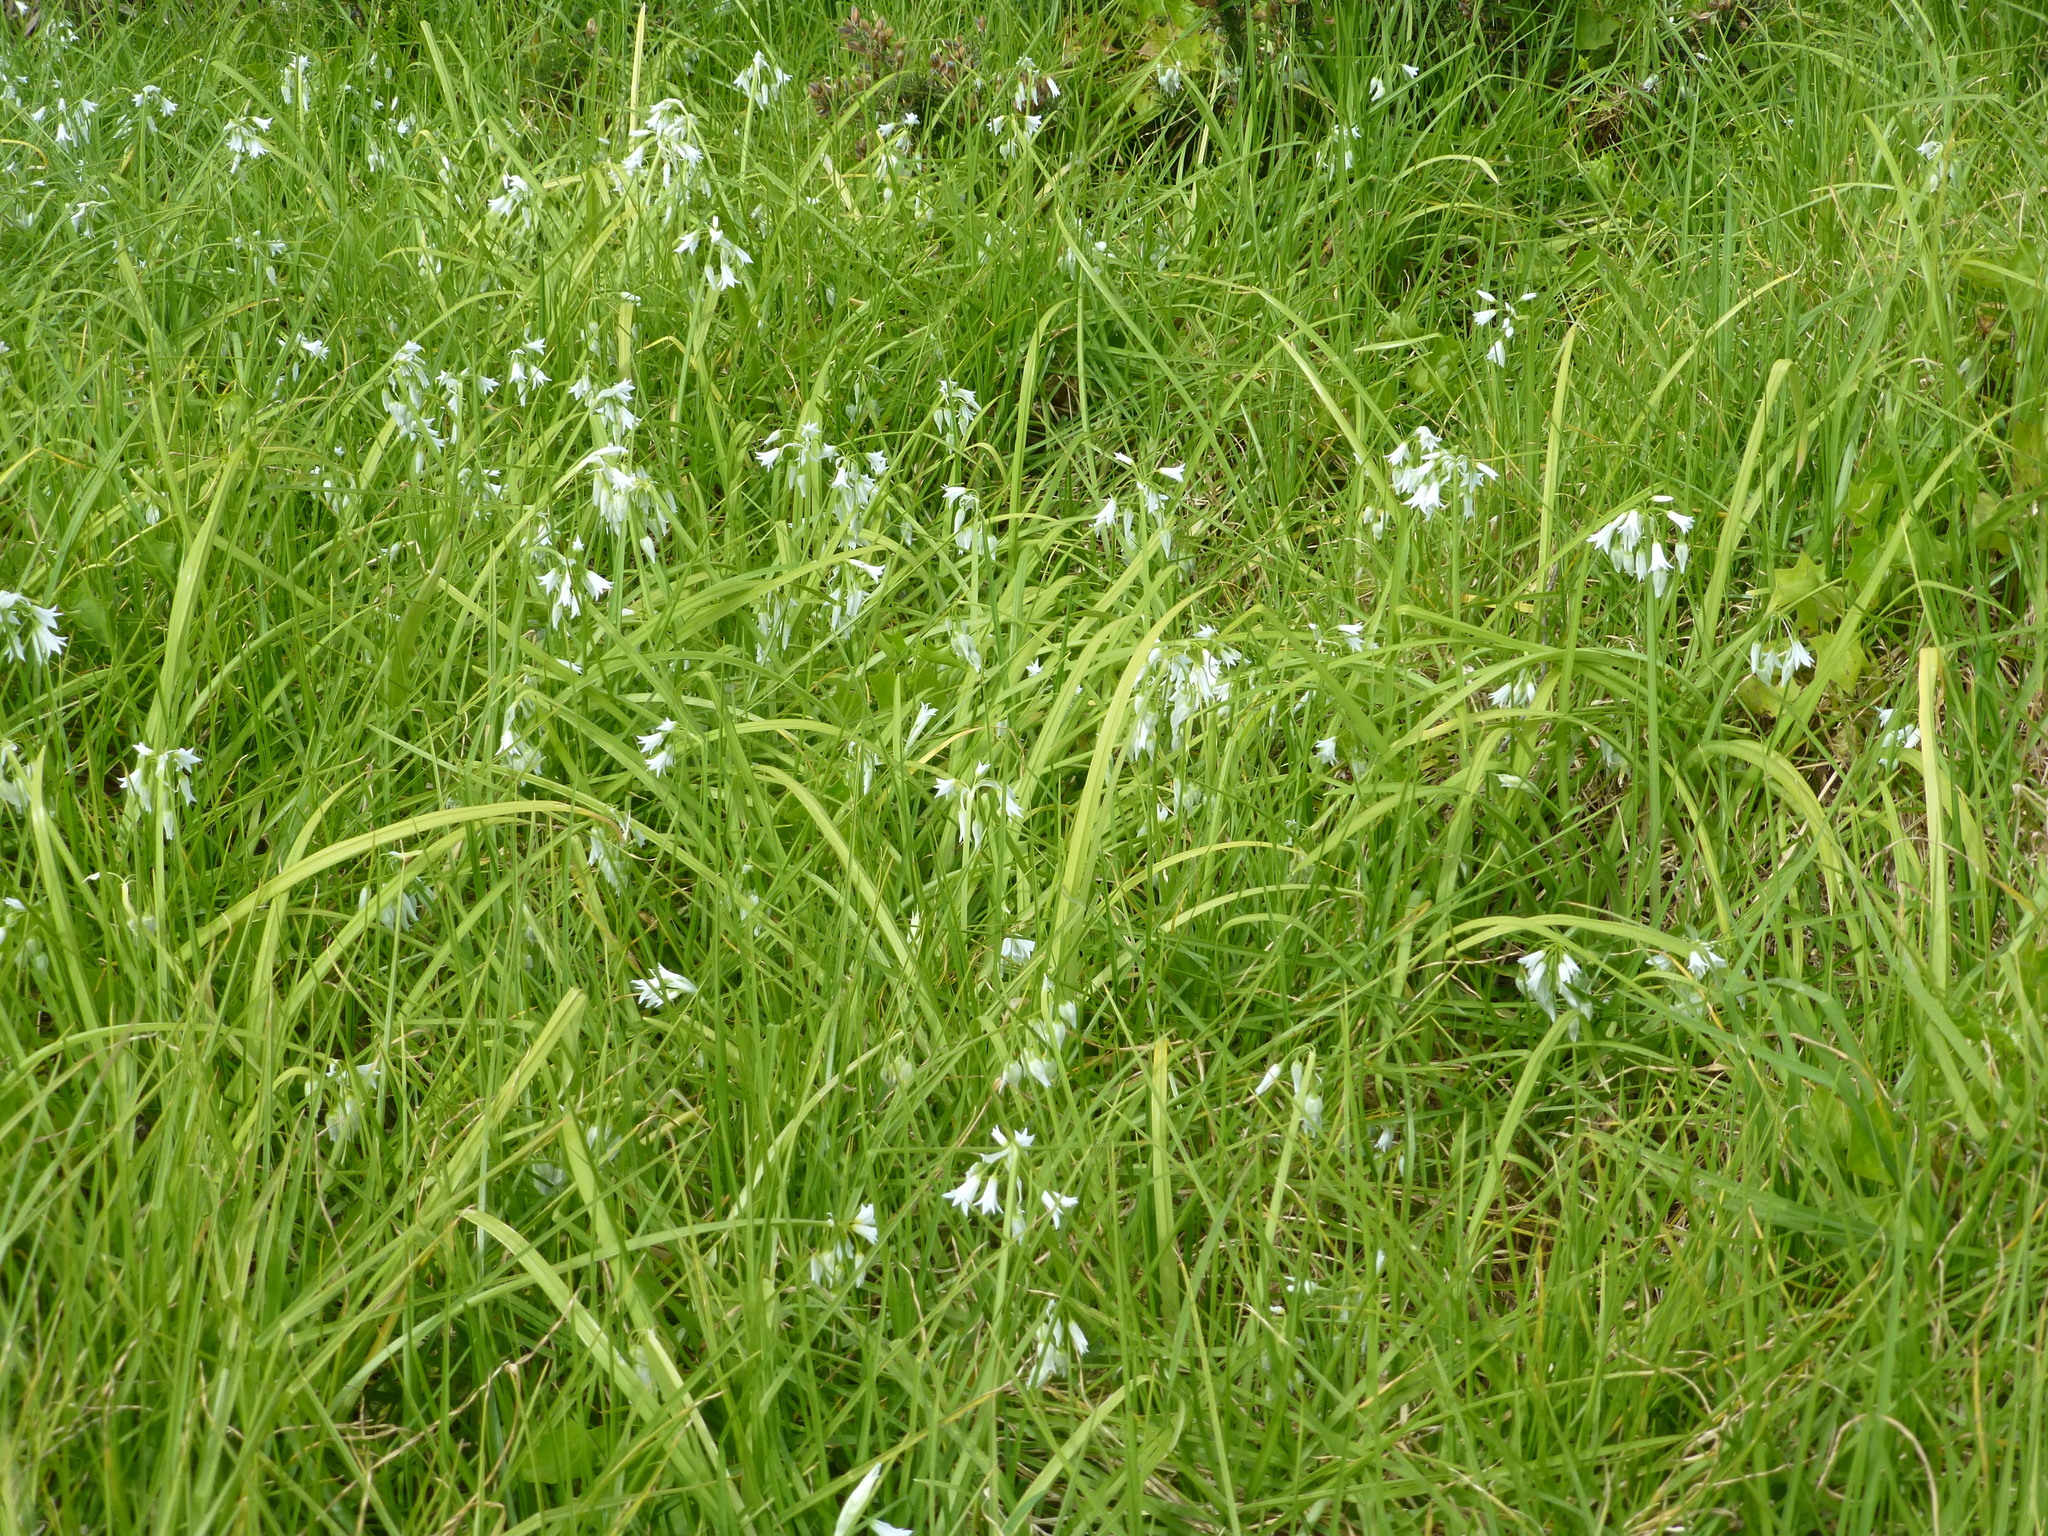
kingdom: Plantae
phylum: Tracheophyta
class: Liliopsida
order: Asparagales
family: Amaryllidaceae
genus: Allium
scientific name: Allium triquetrum
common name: Three-cornered garlic
